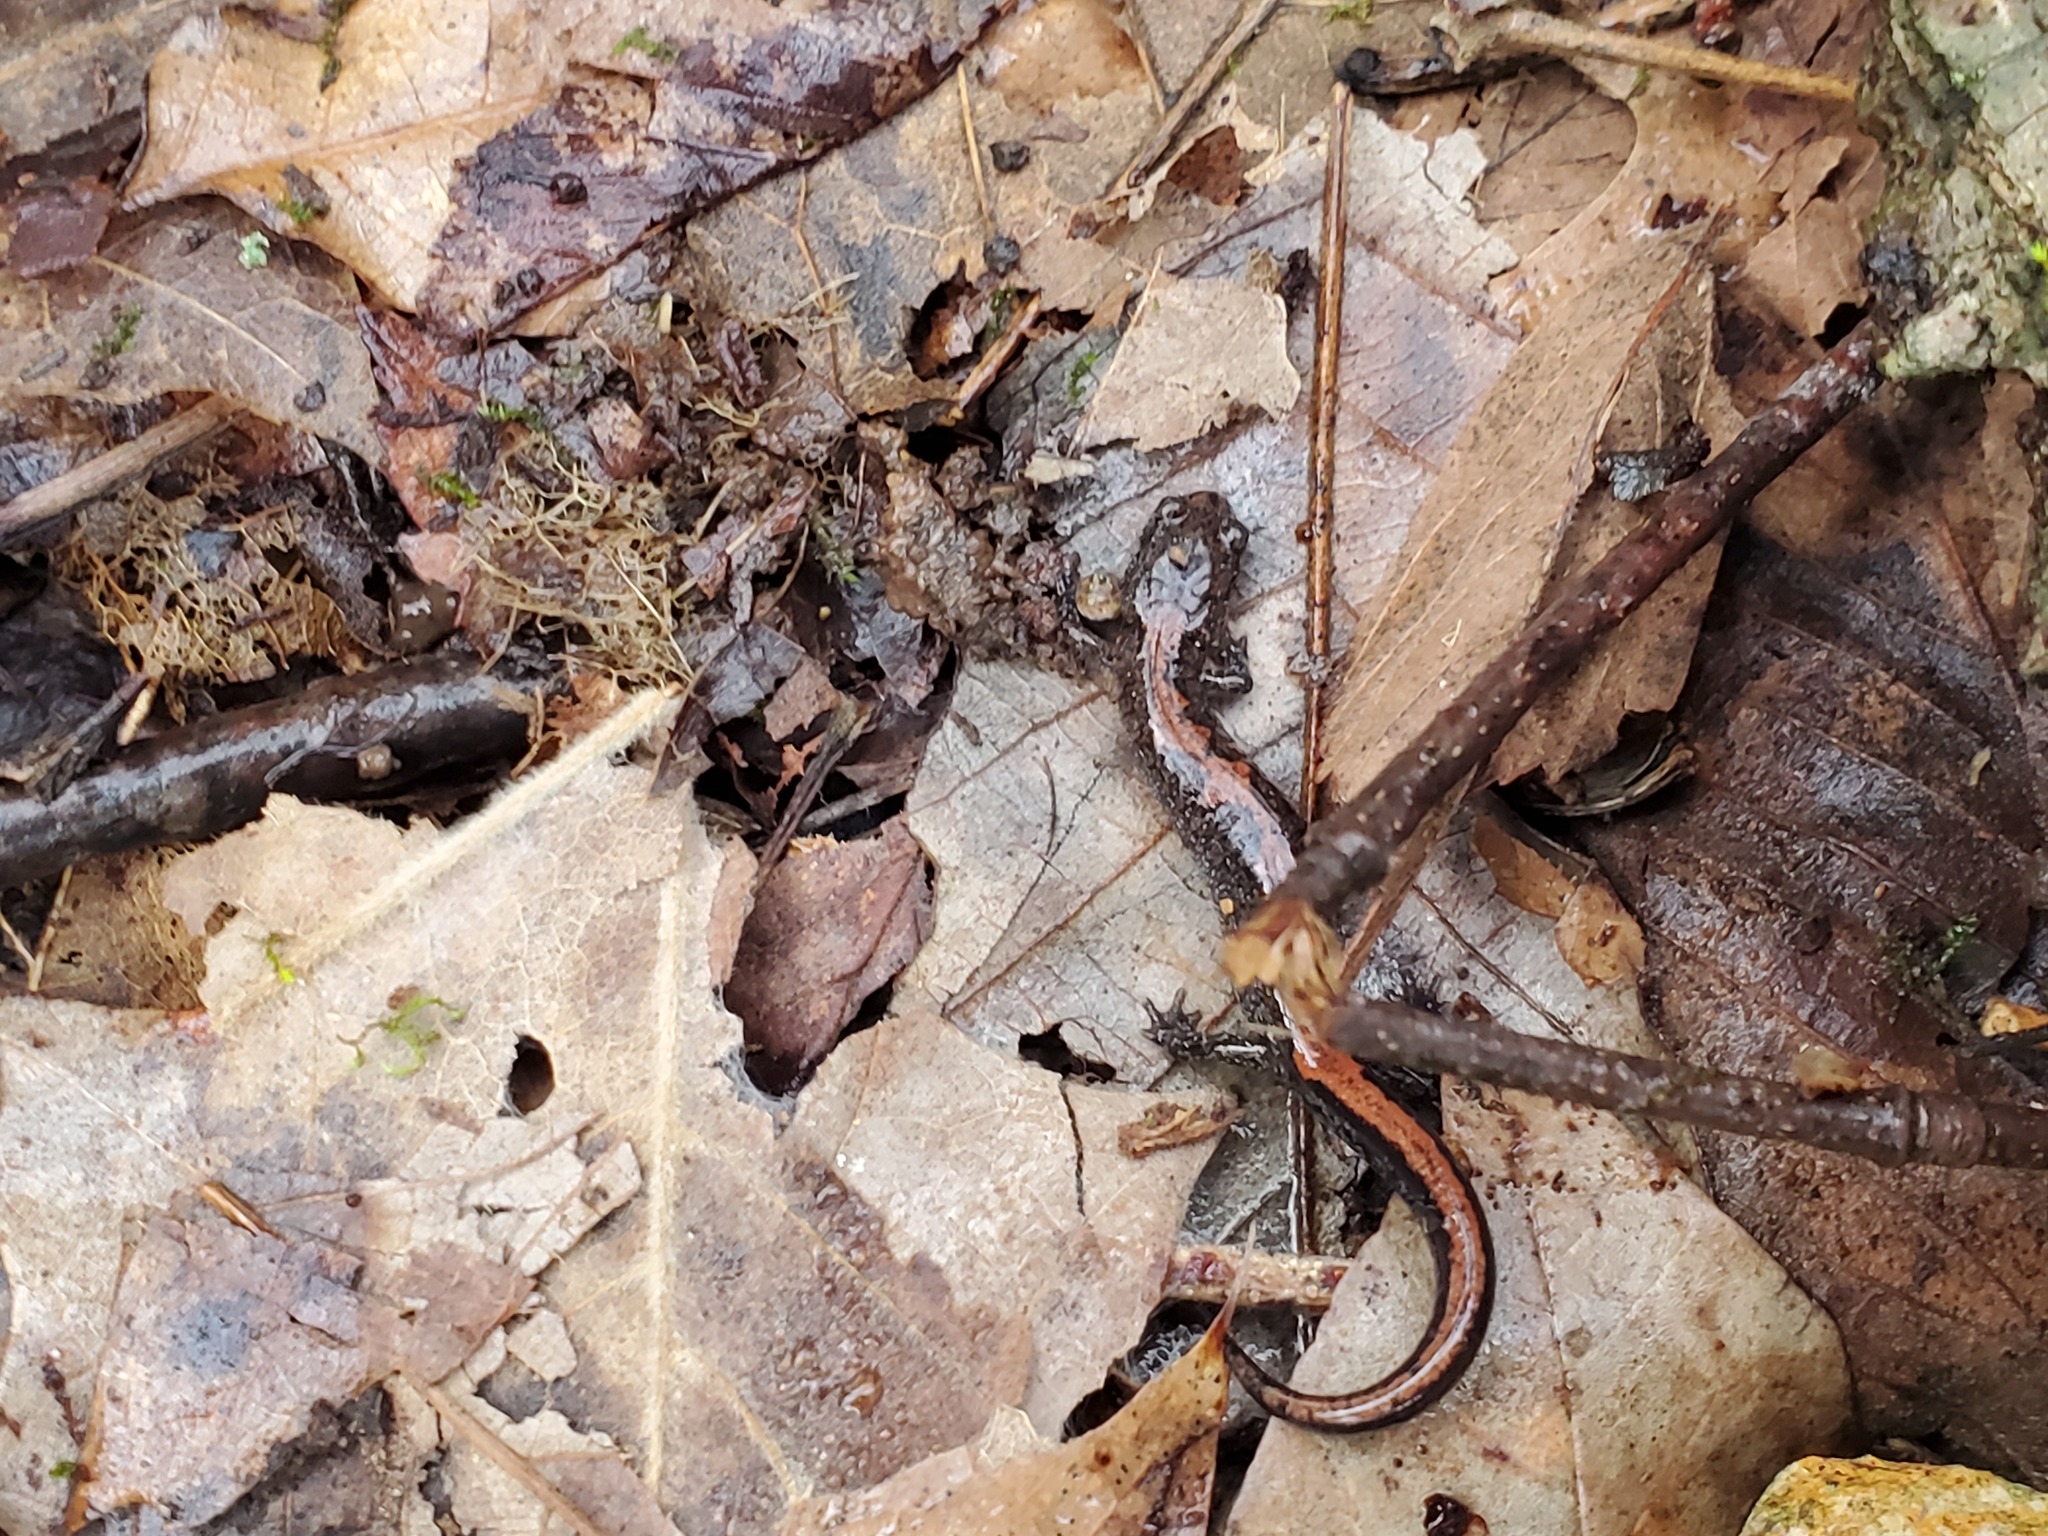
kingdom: Animalia
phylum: Chordata
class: Amphibia
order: Caudata
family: Plethodontidae
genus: Plethodon
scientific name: Plethodon dorsalis
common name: Northern zigzag salamander
